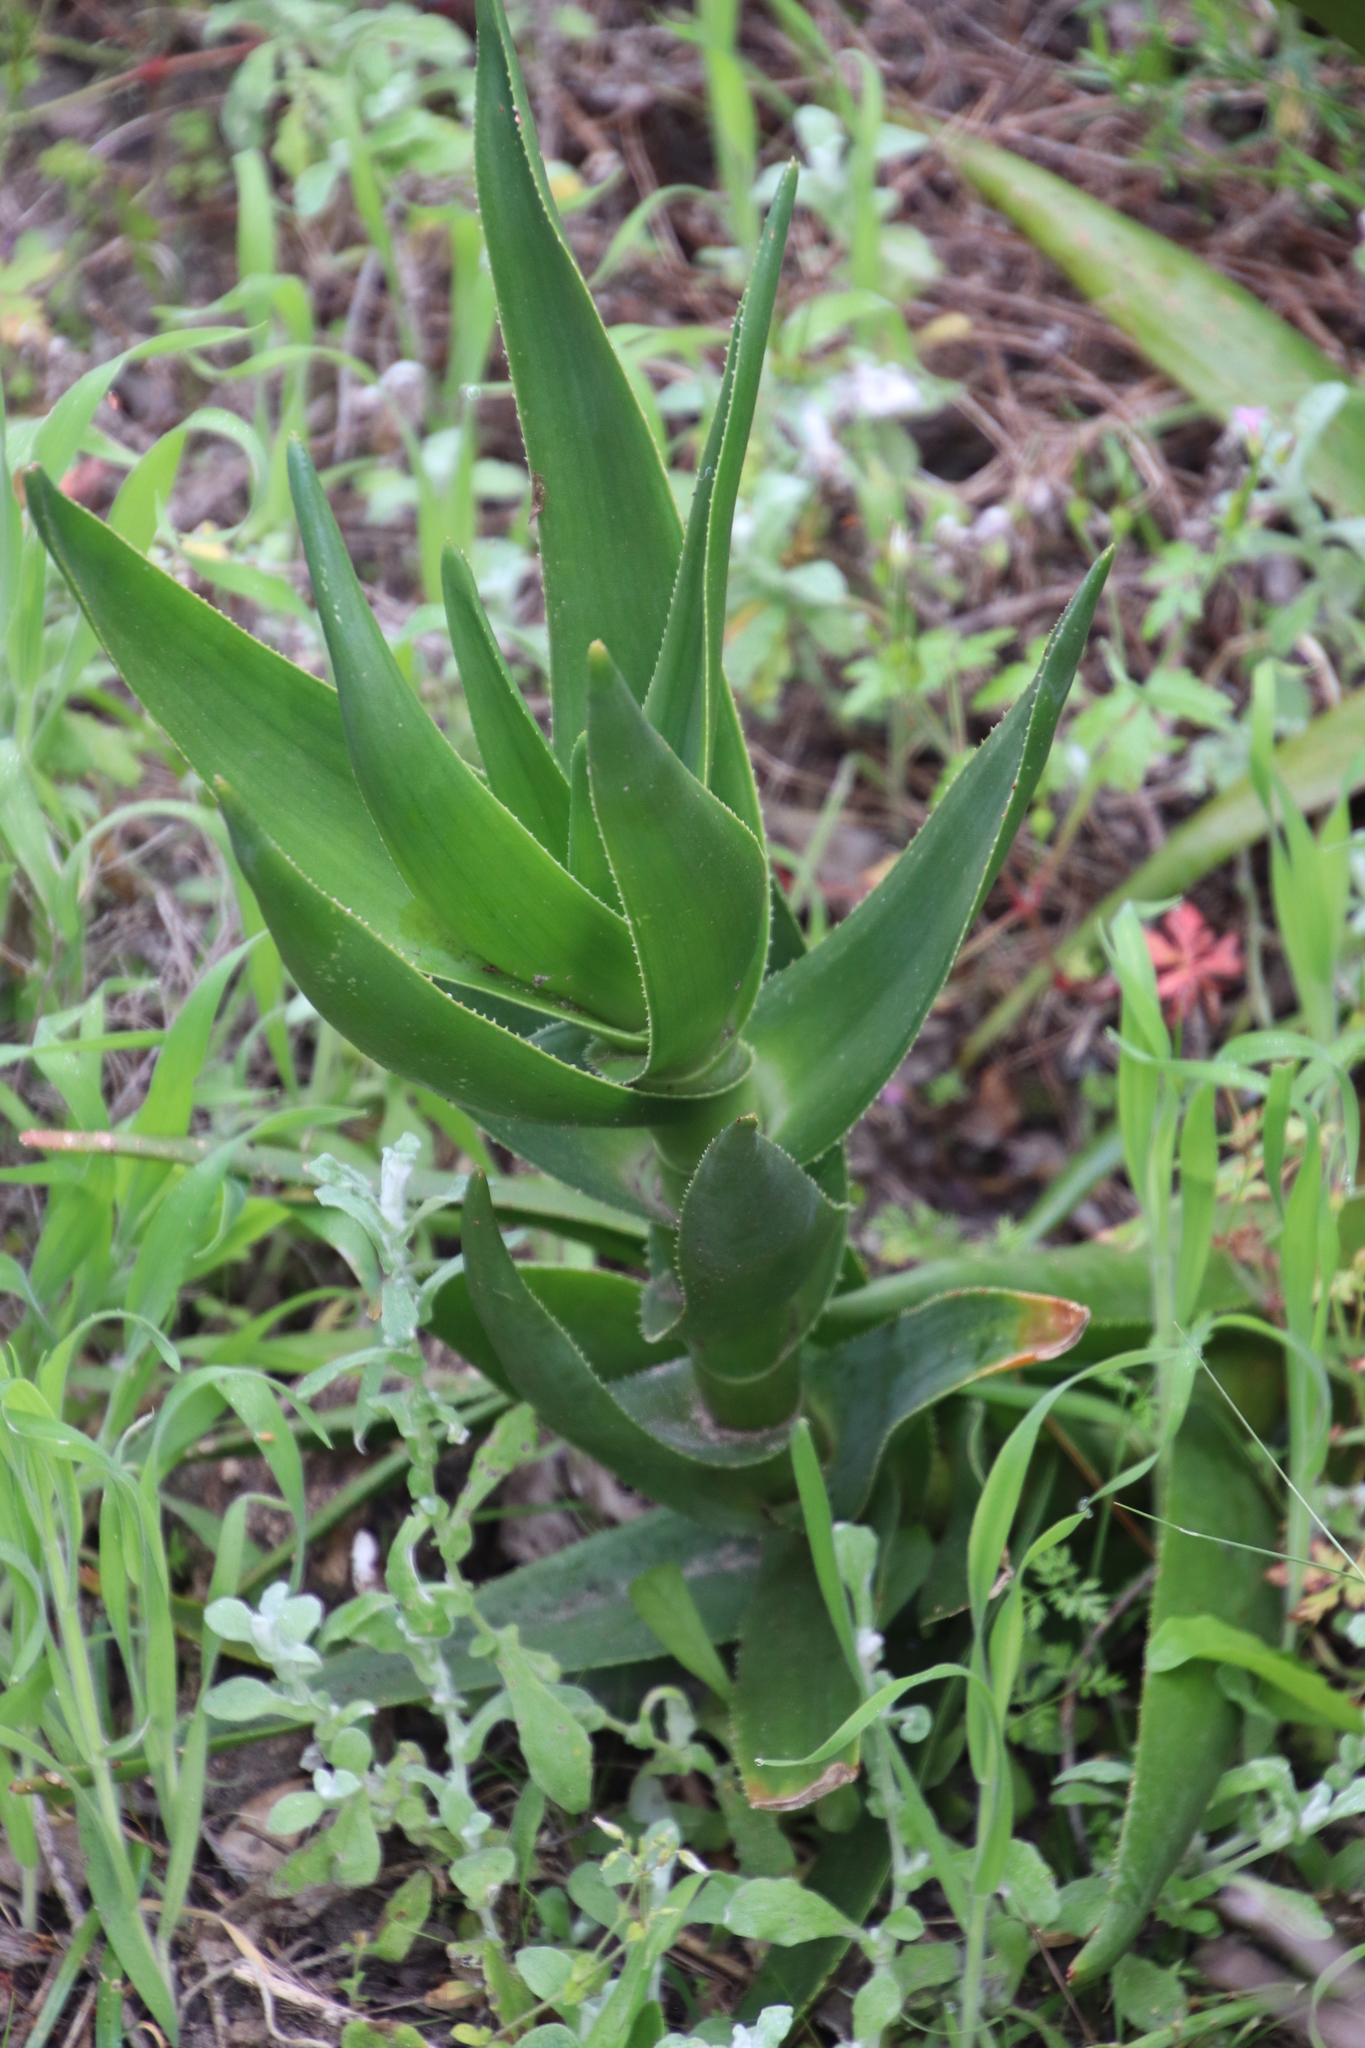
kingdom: Plantae
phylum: Tracheophyta
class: Liliopsida
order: Asparagales
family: Asphodelaceae
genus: Aloiampelos
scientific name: Aloiampelos commixta
